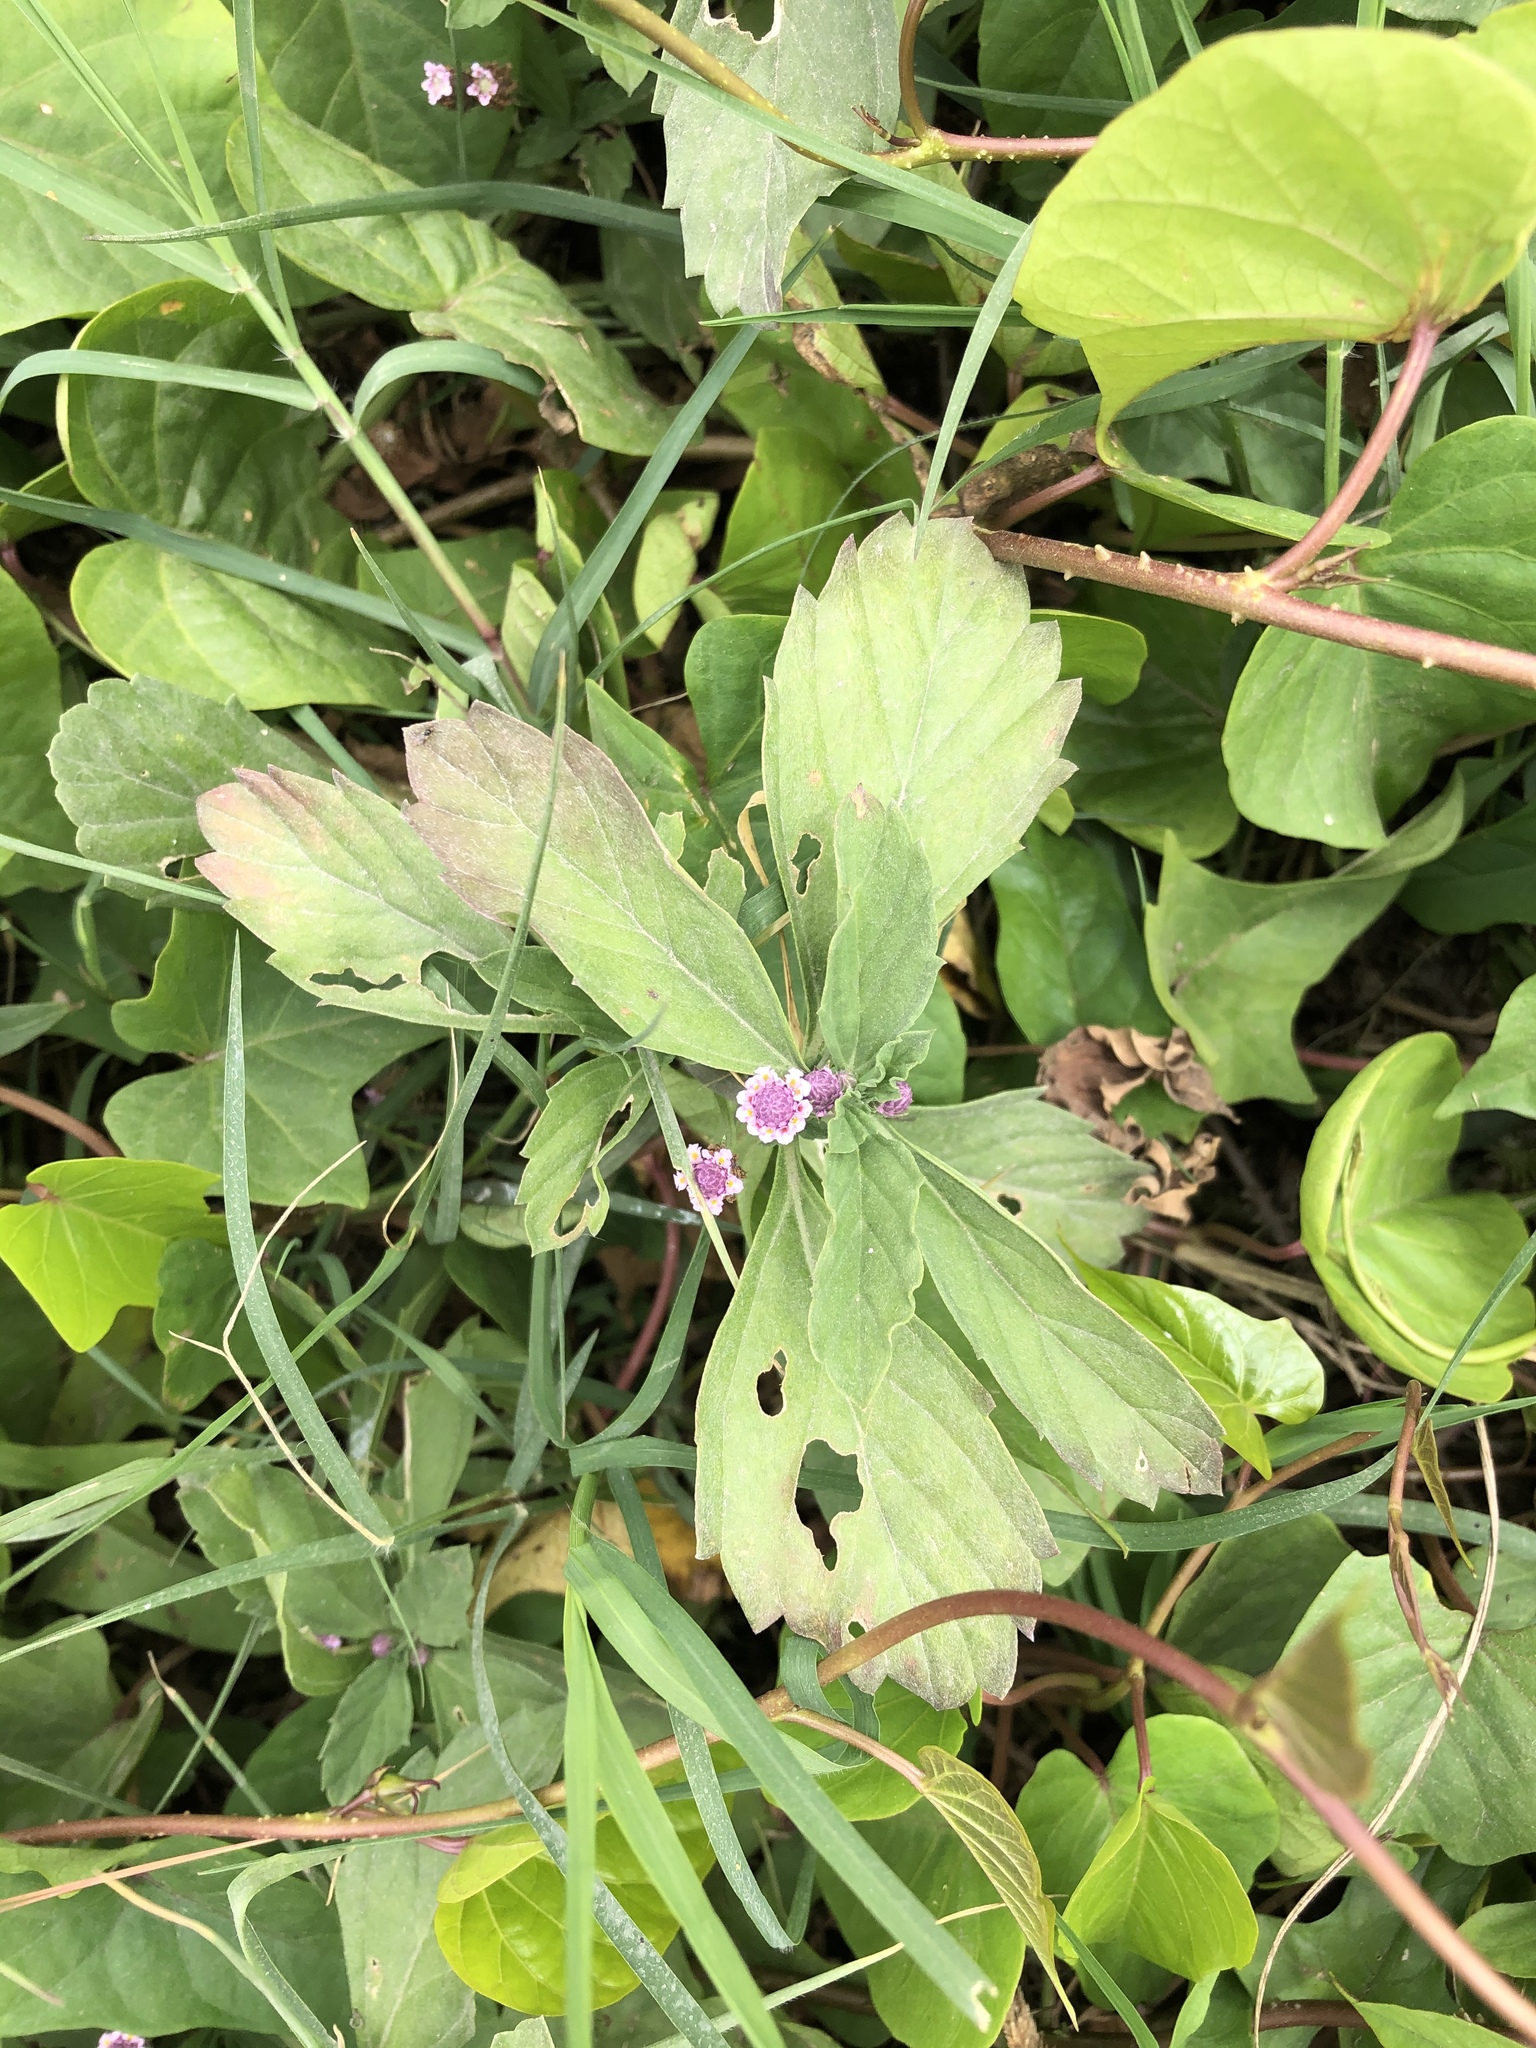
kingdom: Plantae
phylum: Tracheophyta
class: Magnoliopsida
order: Lamiales
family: Verbenaceae
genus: Phyla
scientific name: Phyla lanceolata
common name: Northern fogfruit
